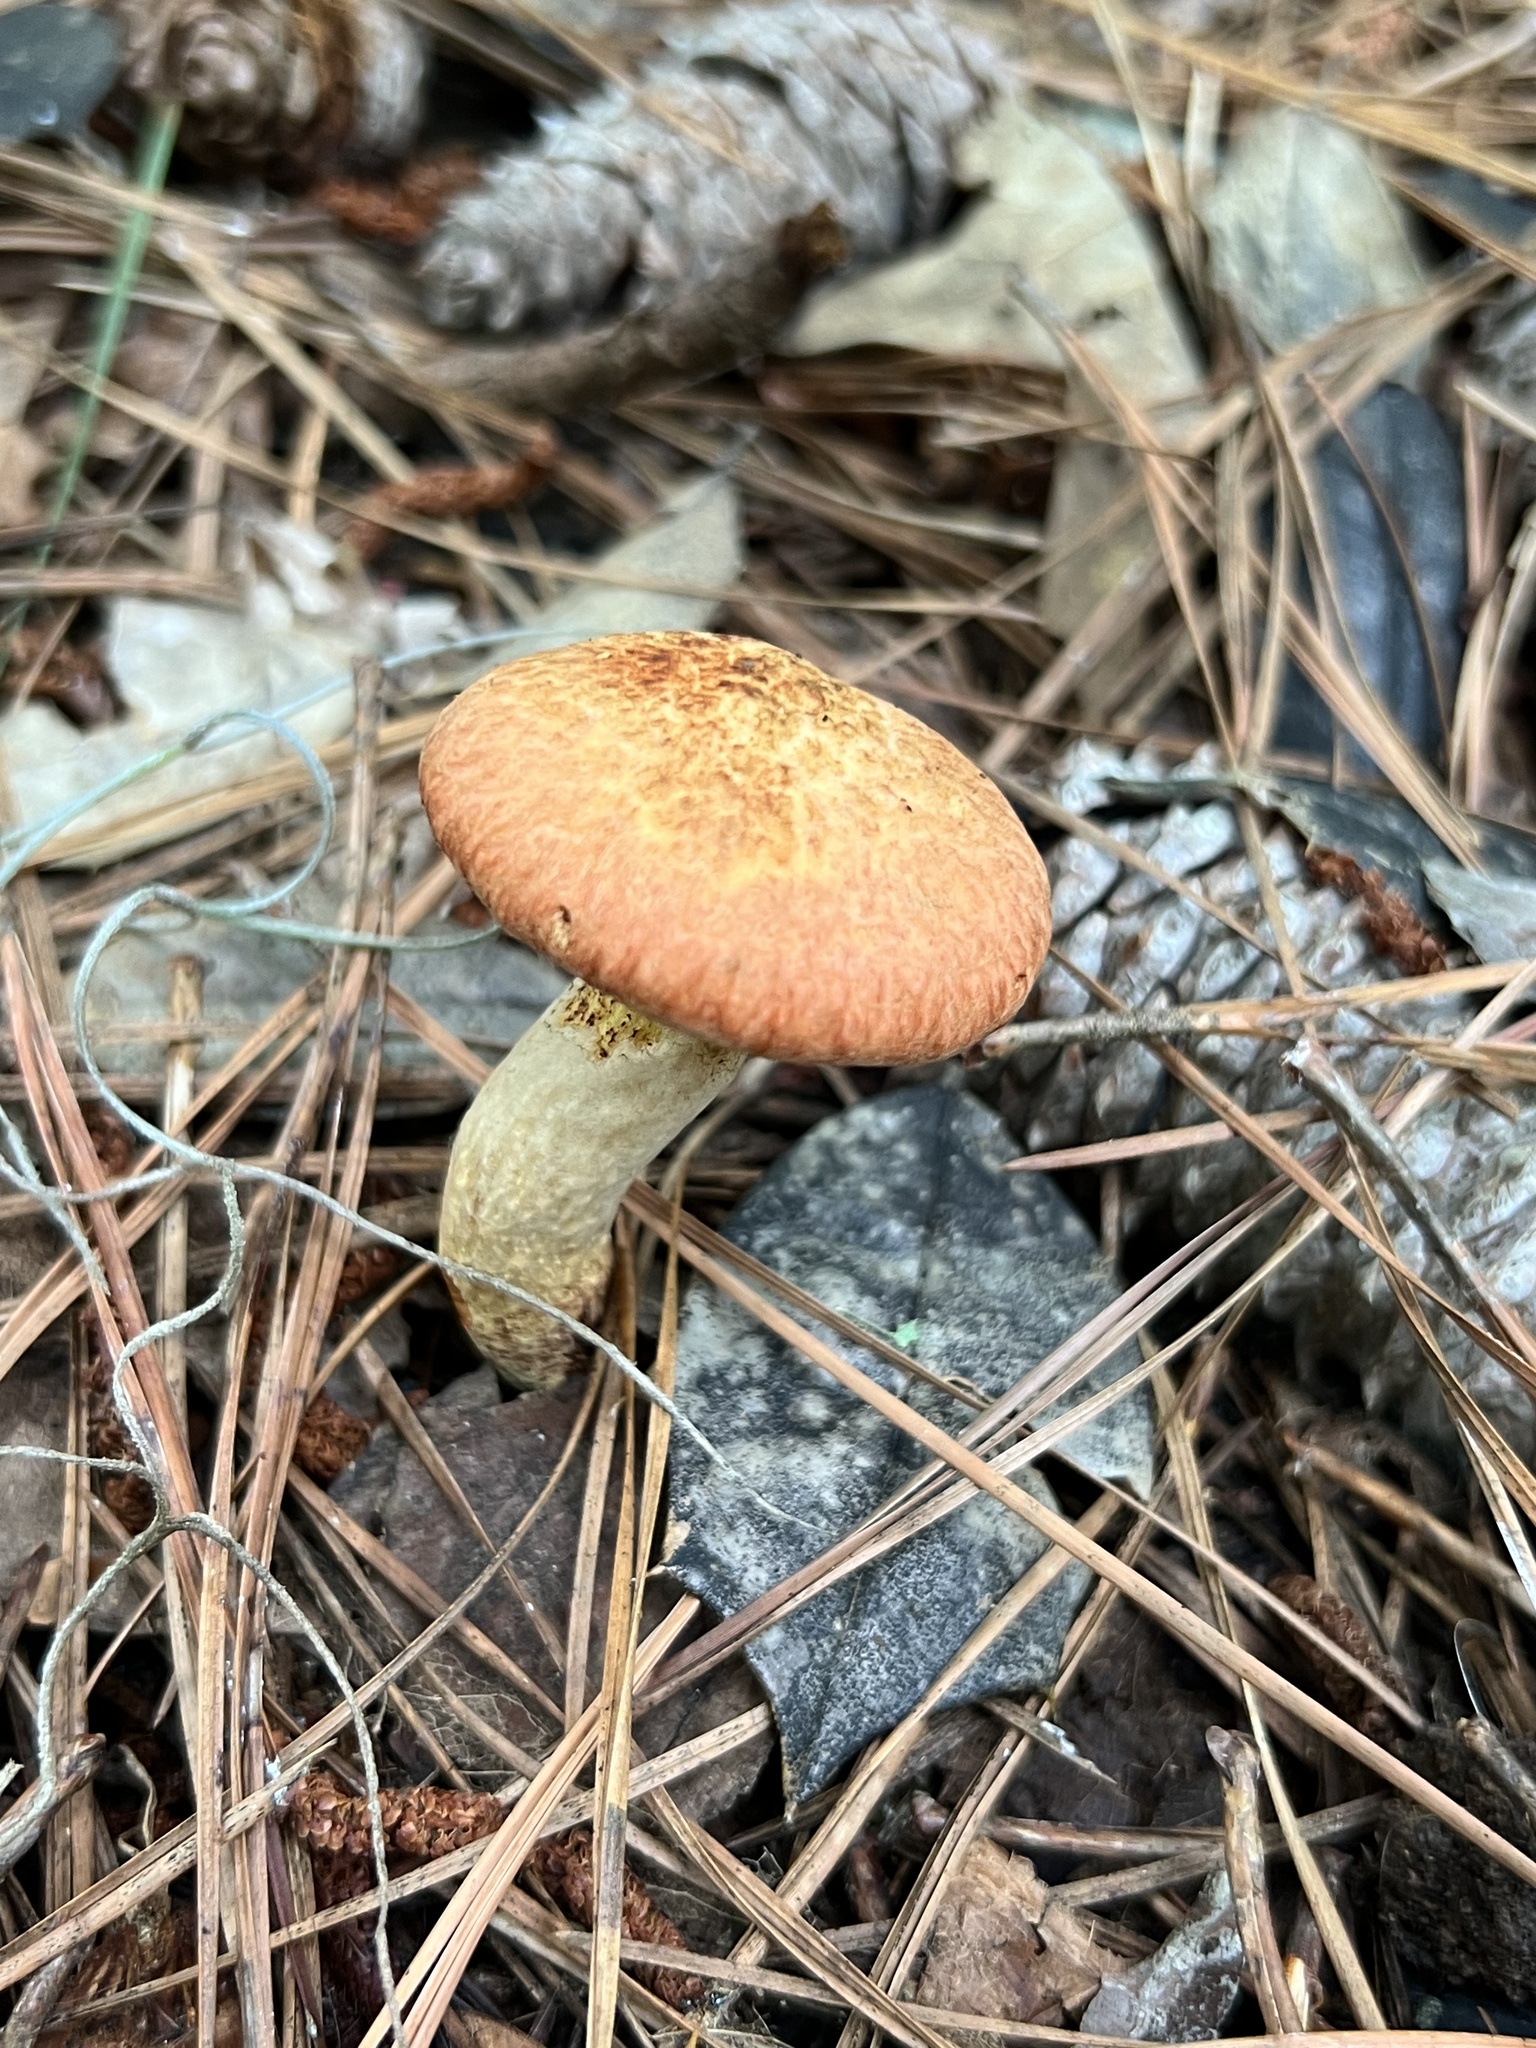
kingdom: Fungi
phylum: Basidiomycota
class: Agaricomycetes
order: Boletales
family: Suillaceae
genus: Suillus
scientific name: Suillus decipiens
